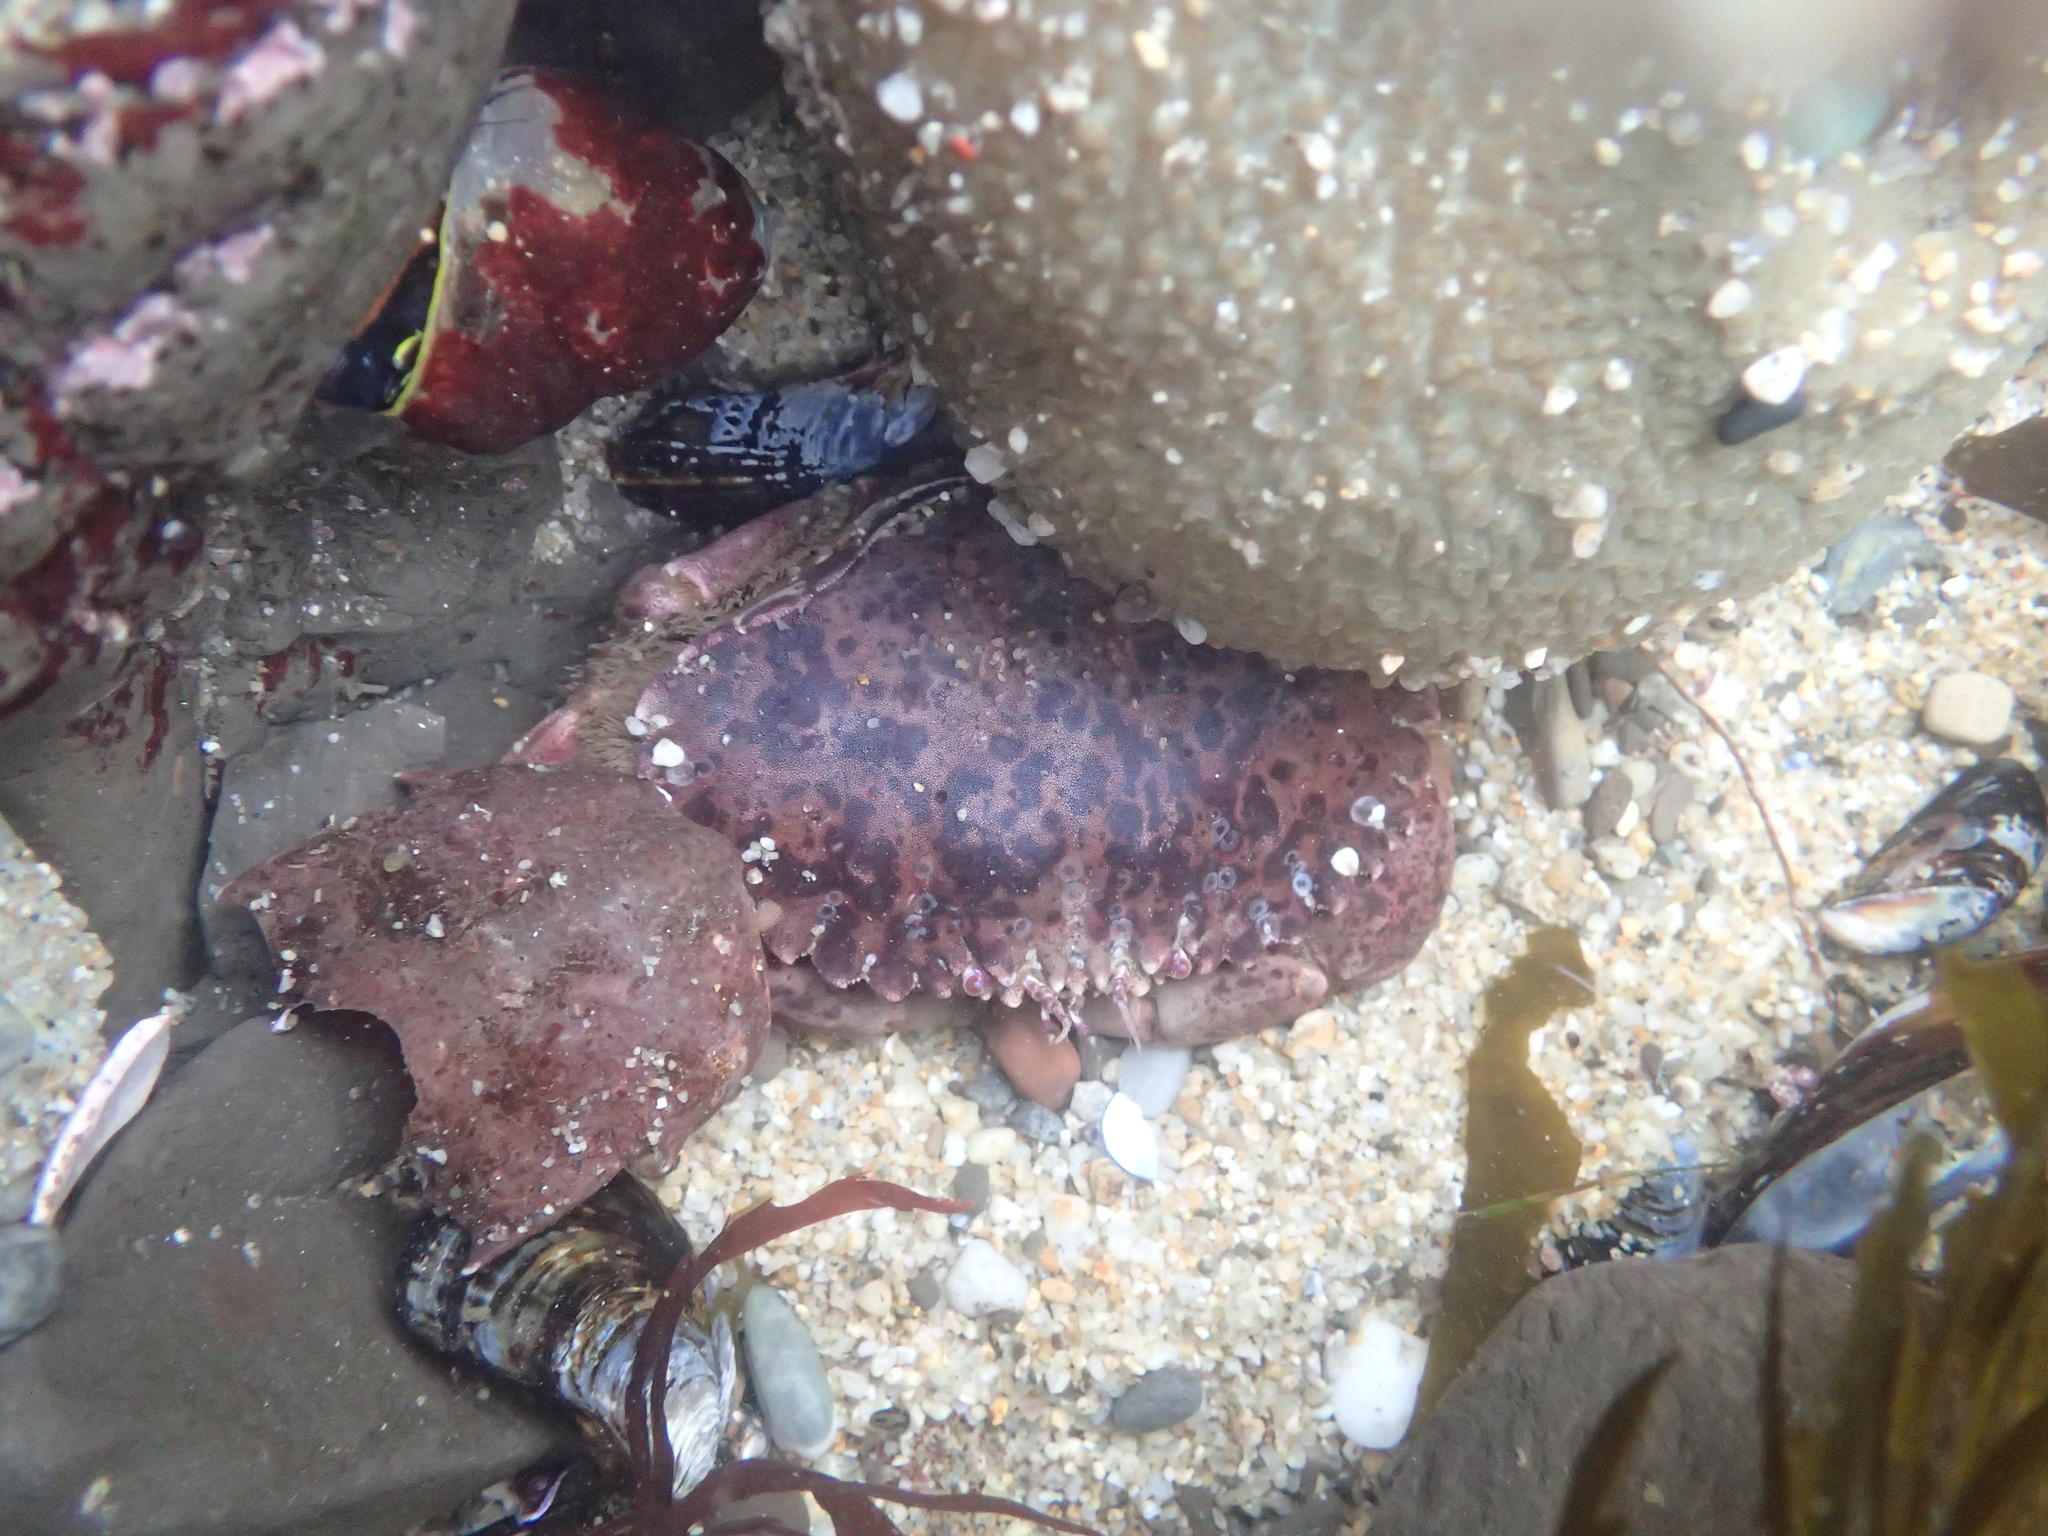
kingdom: Animalia
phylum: Arthropoda
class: Malacostraca
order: Decapoda
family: Cancridae
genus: Romaleon
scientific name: Romaleon antennarium
